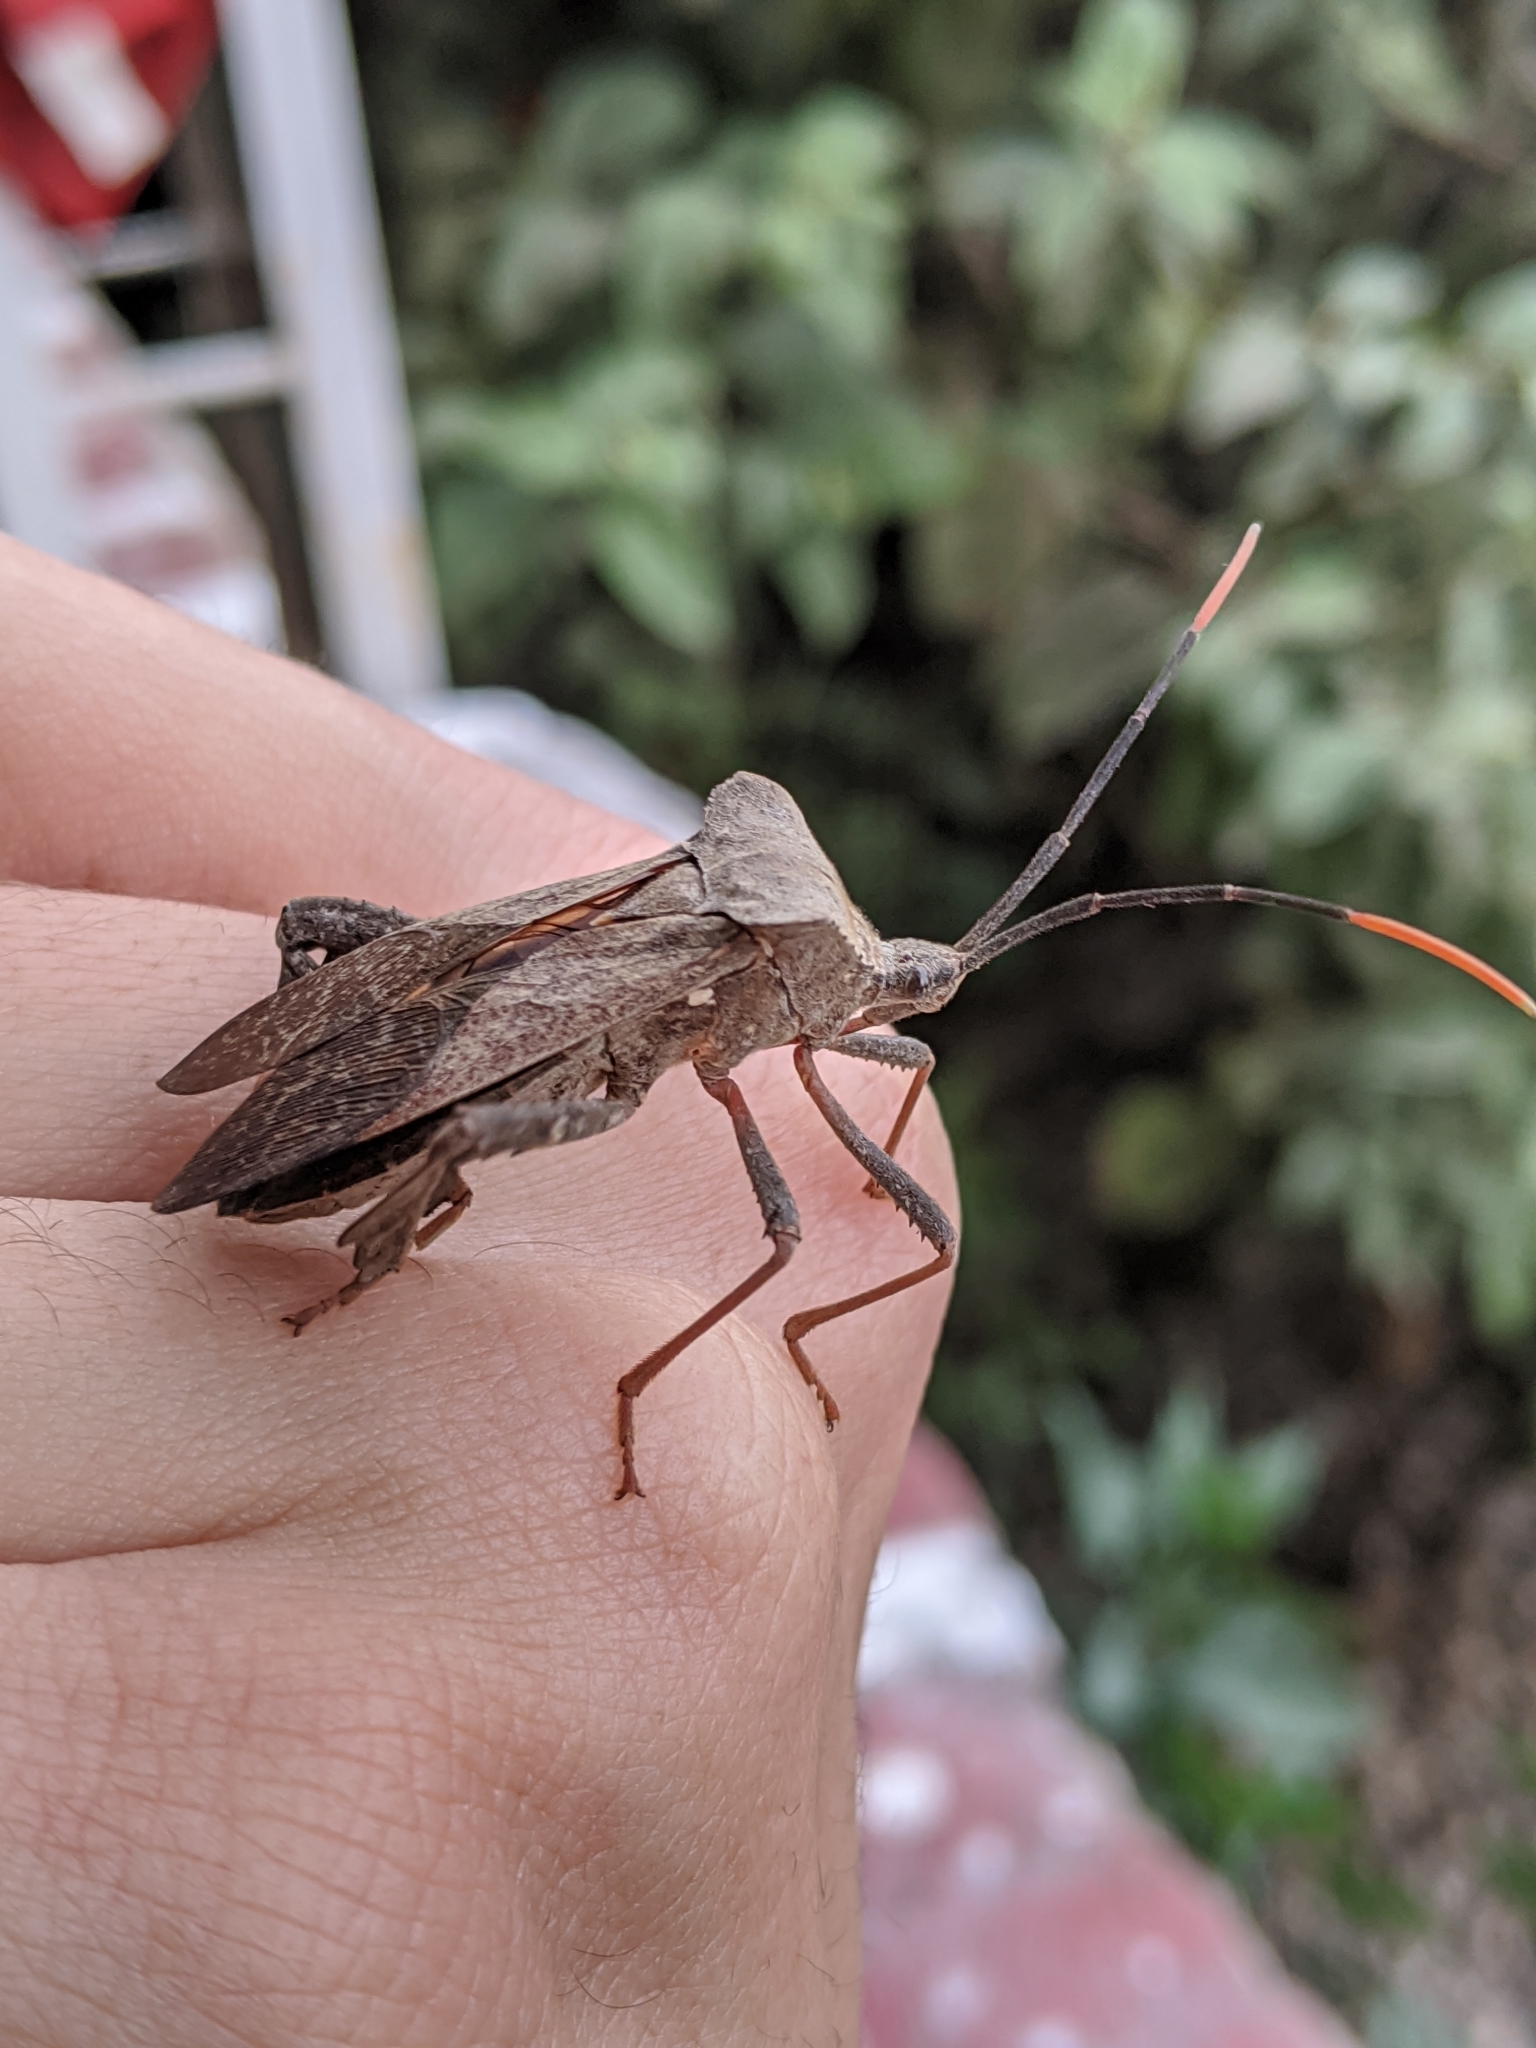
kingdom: Animalia
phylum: Arthropoda
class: Insecta
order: Hemiptera
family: Coreidae
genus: Acanthocephala
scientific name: Acanthocephala alata
